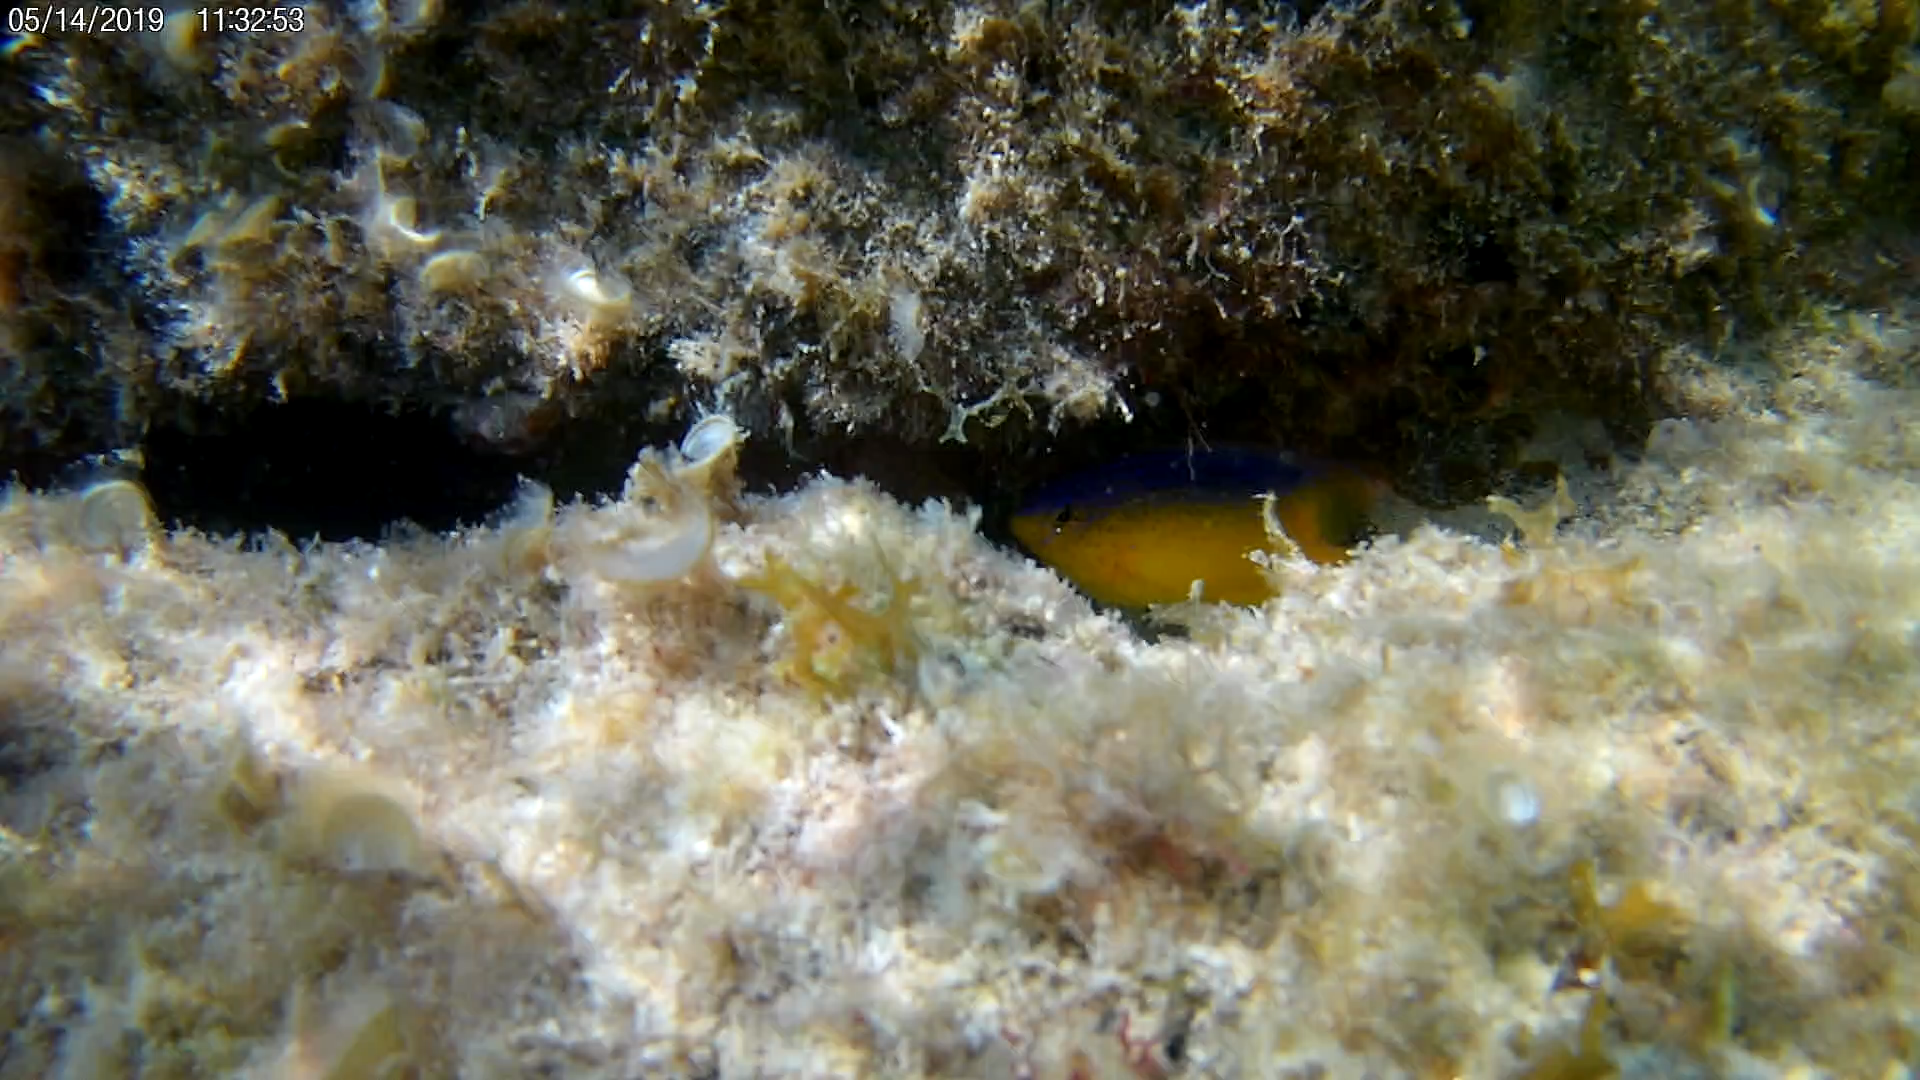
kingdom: Animalia
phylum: Chordata
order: Perciformes
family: Pomacentridae
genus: Stegastes
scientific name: Stegastes leucostictus
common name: Beaugregory
